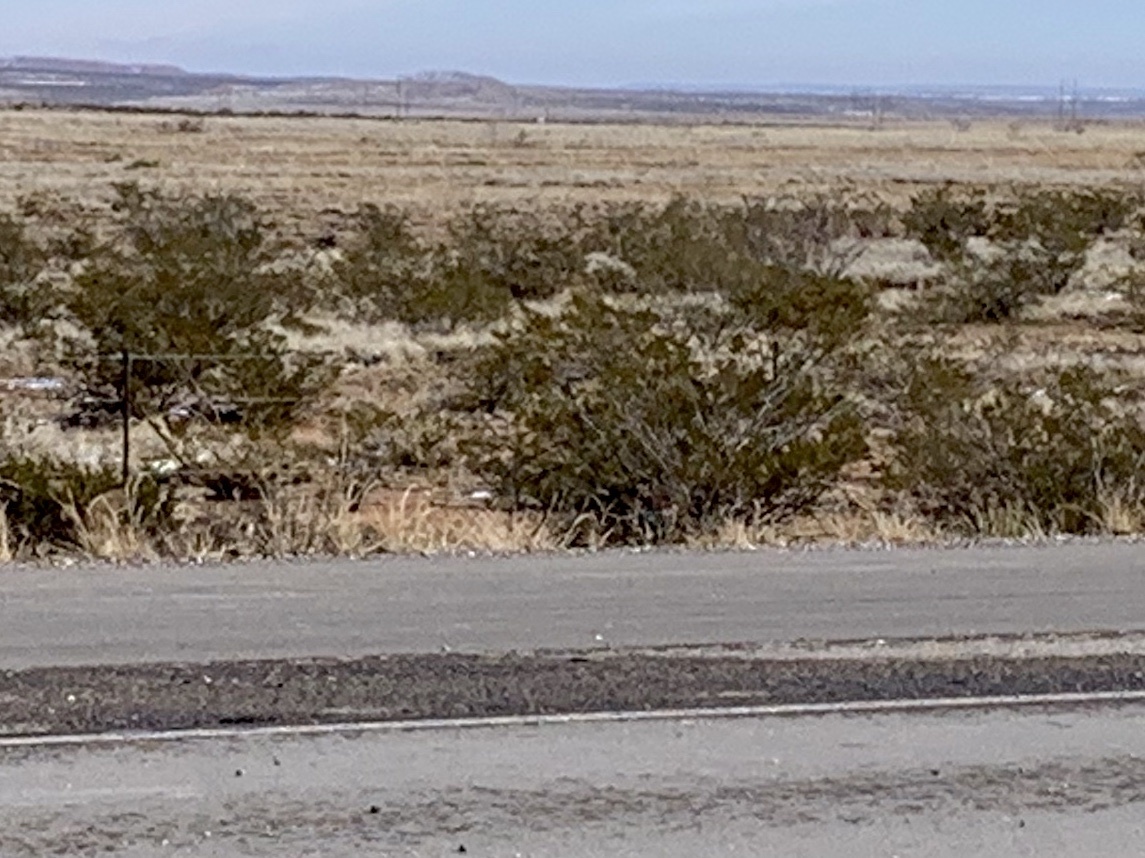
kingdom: Plantae
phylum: Tracheophyta
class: Magnoliopsida
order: Zygophyllales
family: Zygophyllaceae
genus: Larrea
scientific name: Larrea tridentata
